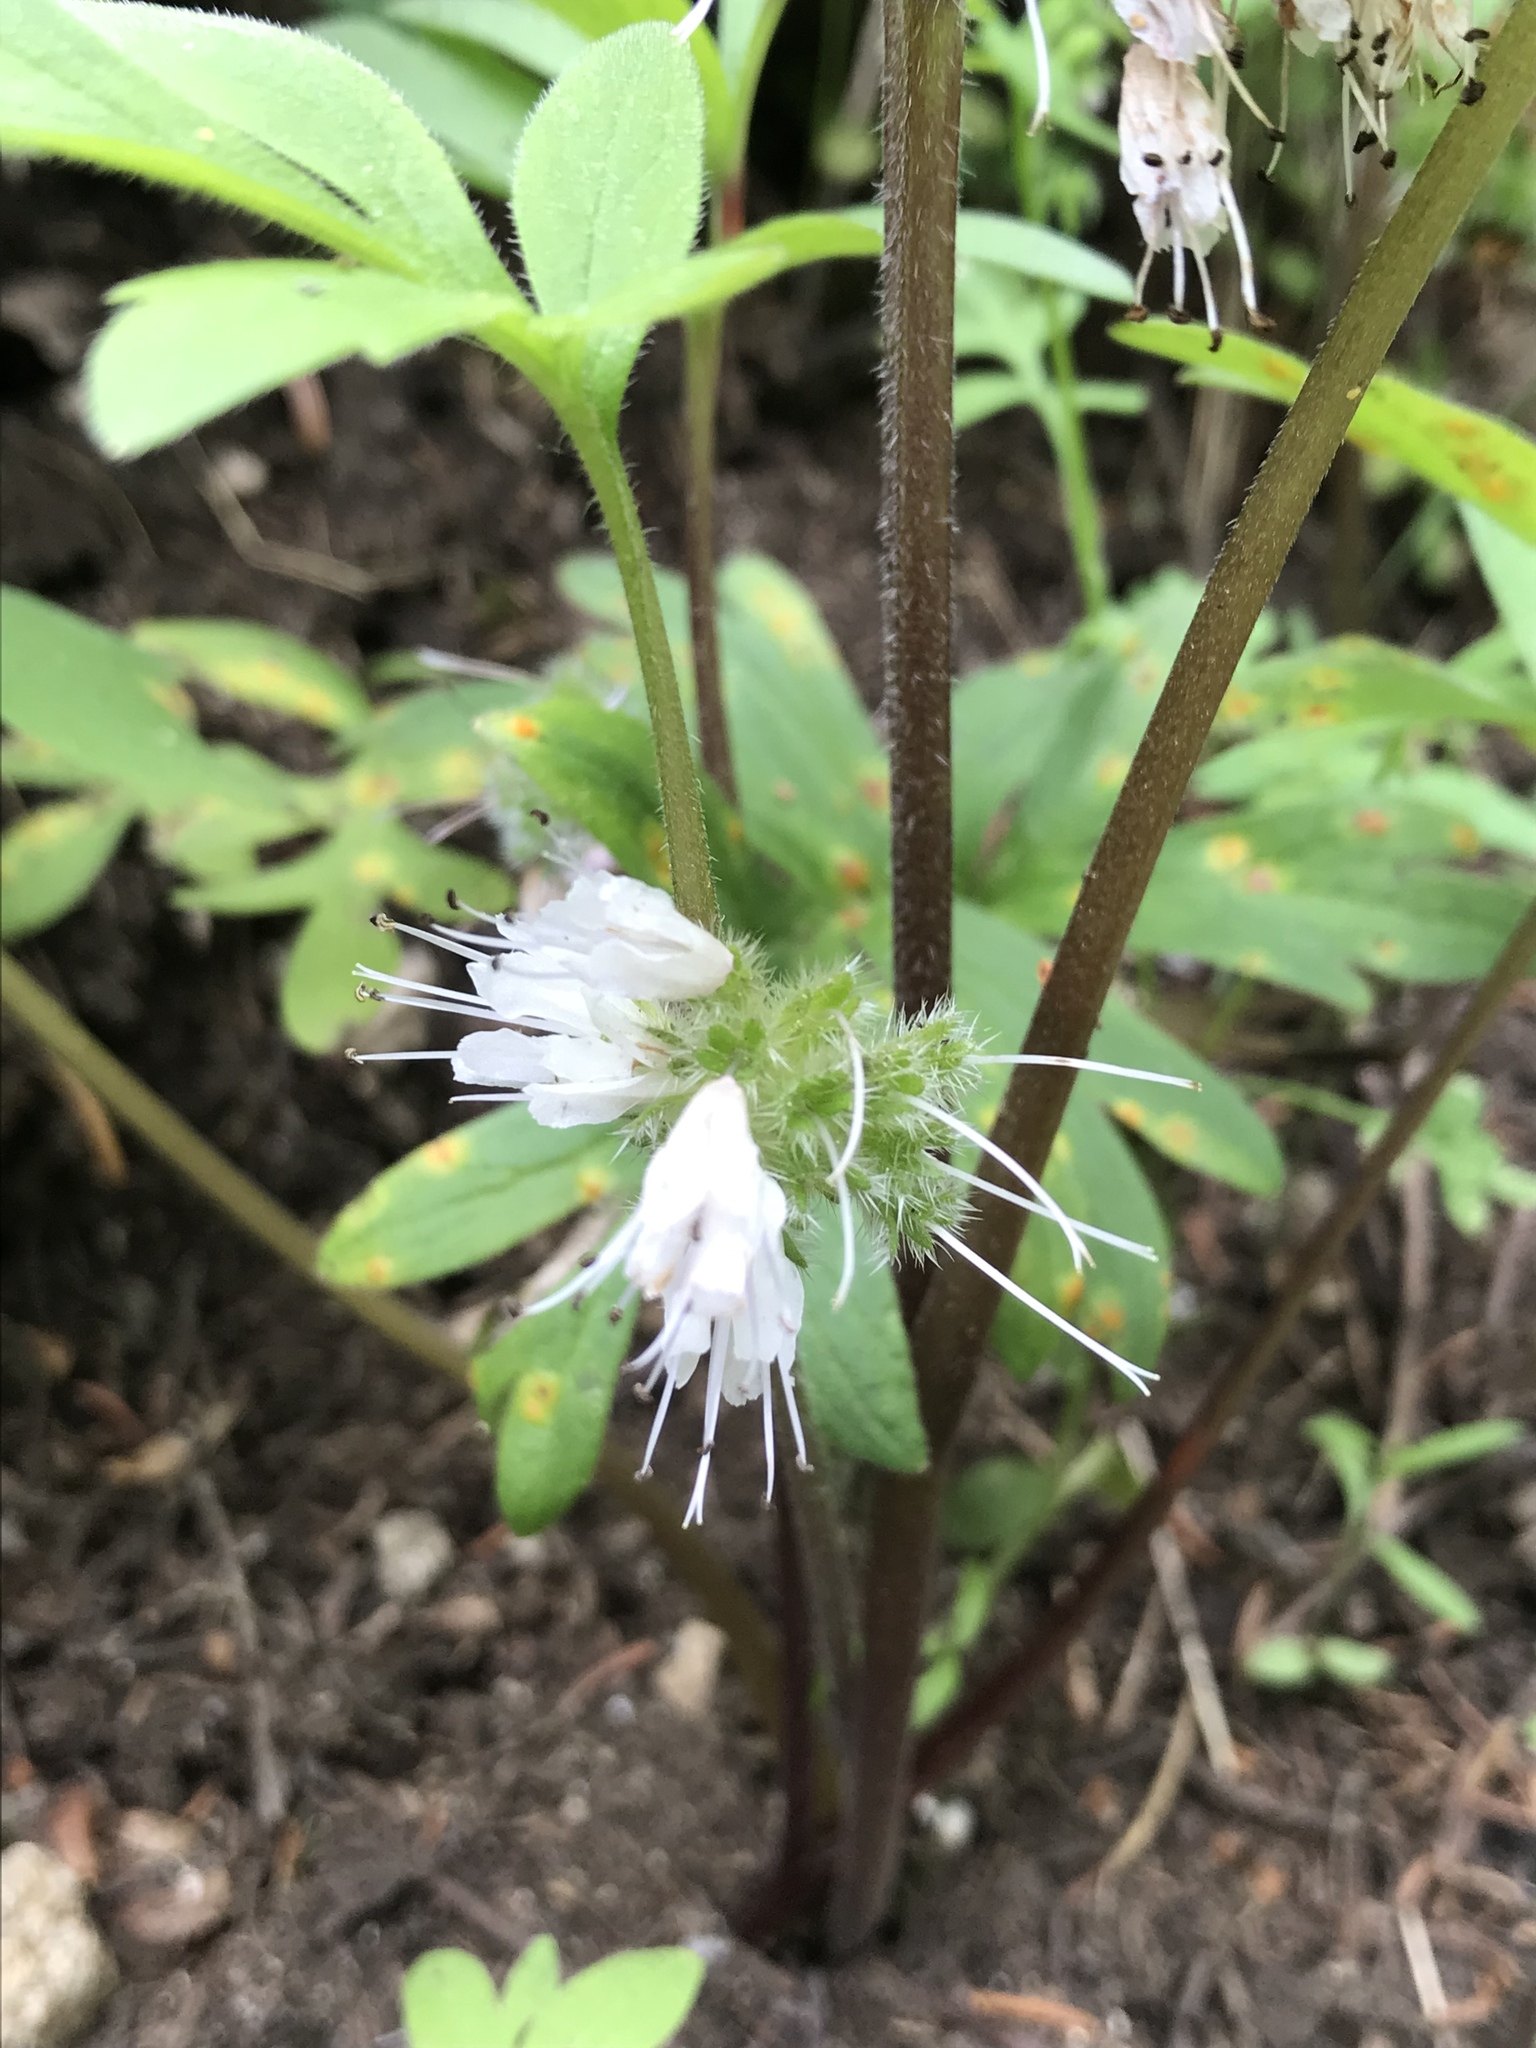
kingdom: Plantae
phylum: Tracheophyta
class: Magnoliopsida
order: Boraginales
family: Hydrophyllaceae
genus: Hydrophyllum
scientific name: Hydrophyllum capitatum
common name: Woollen-breeches
